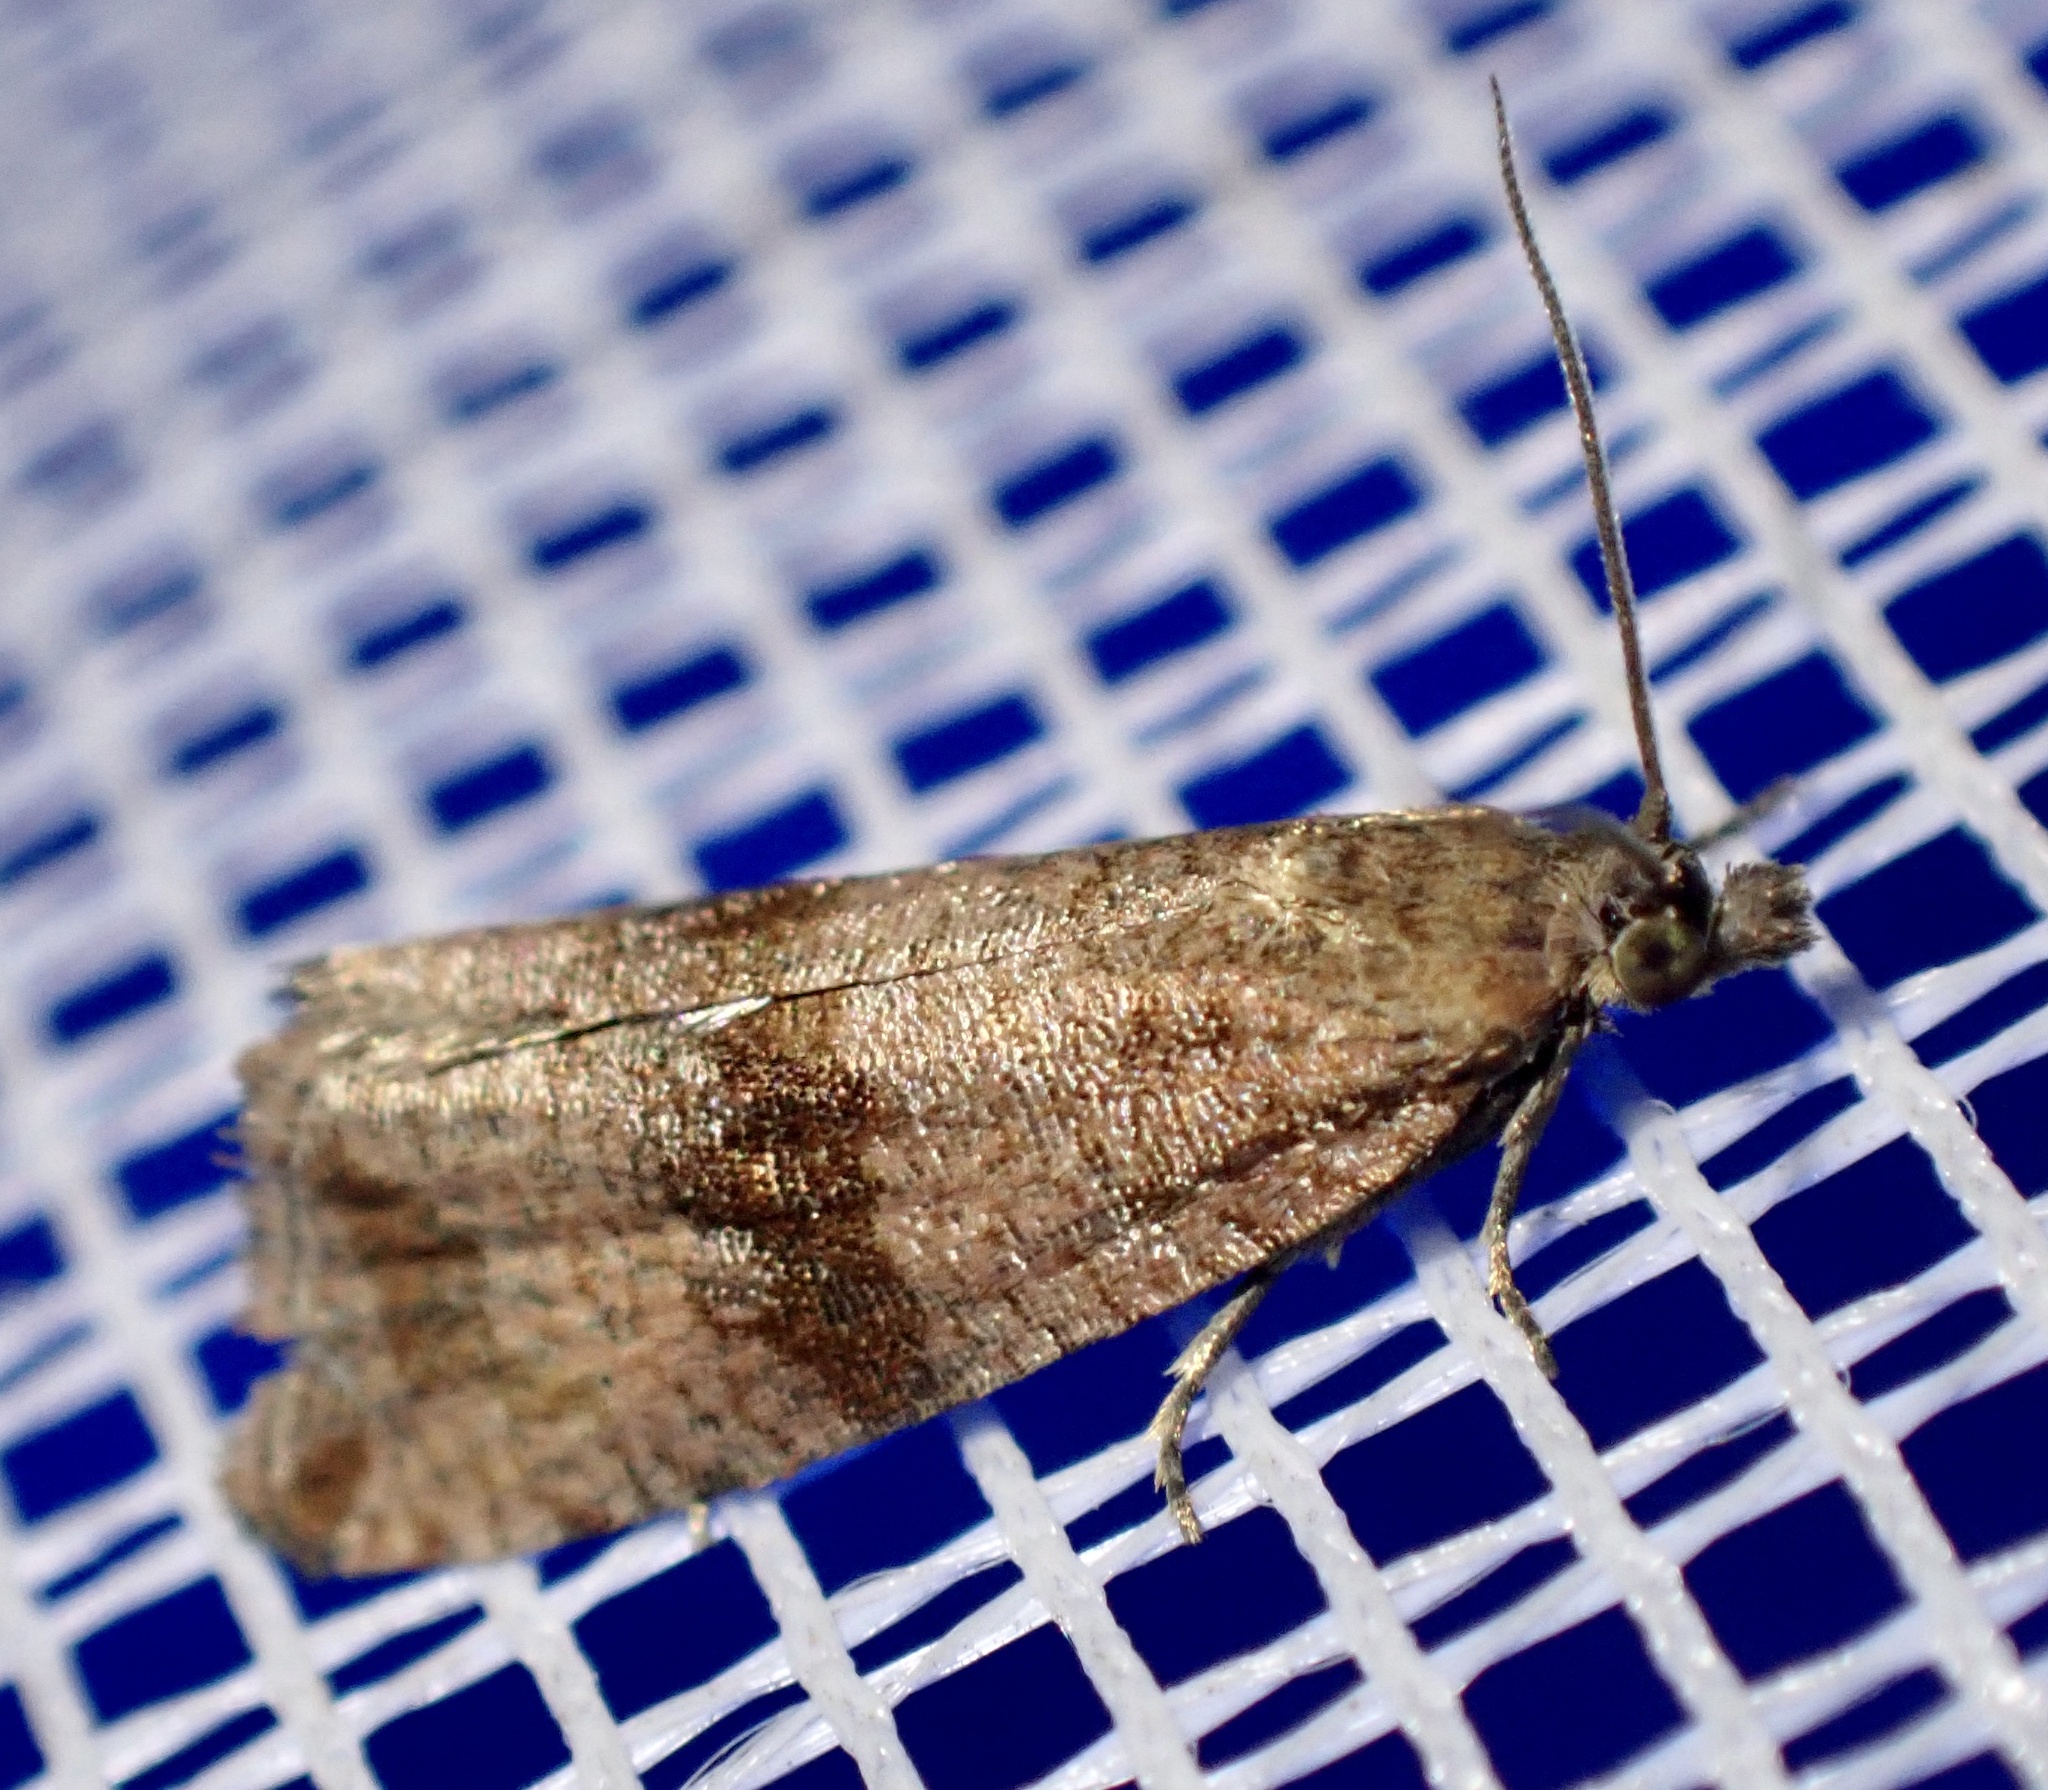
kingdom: Animalia
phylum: Arthropoda
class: Insecta
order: Lepidoptera
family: Tortricidae
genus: Celypha
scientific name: Celypha striana
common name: Barred marble
